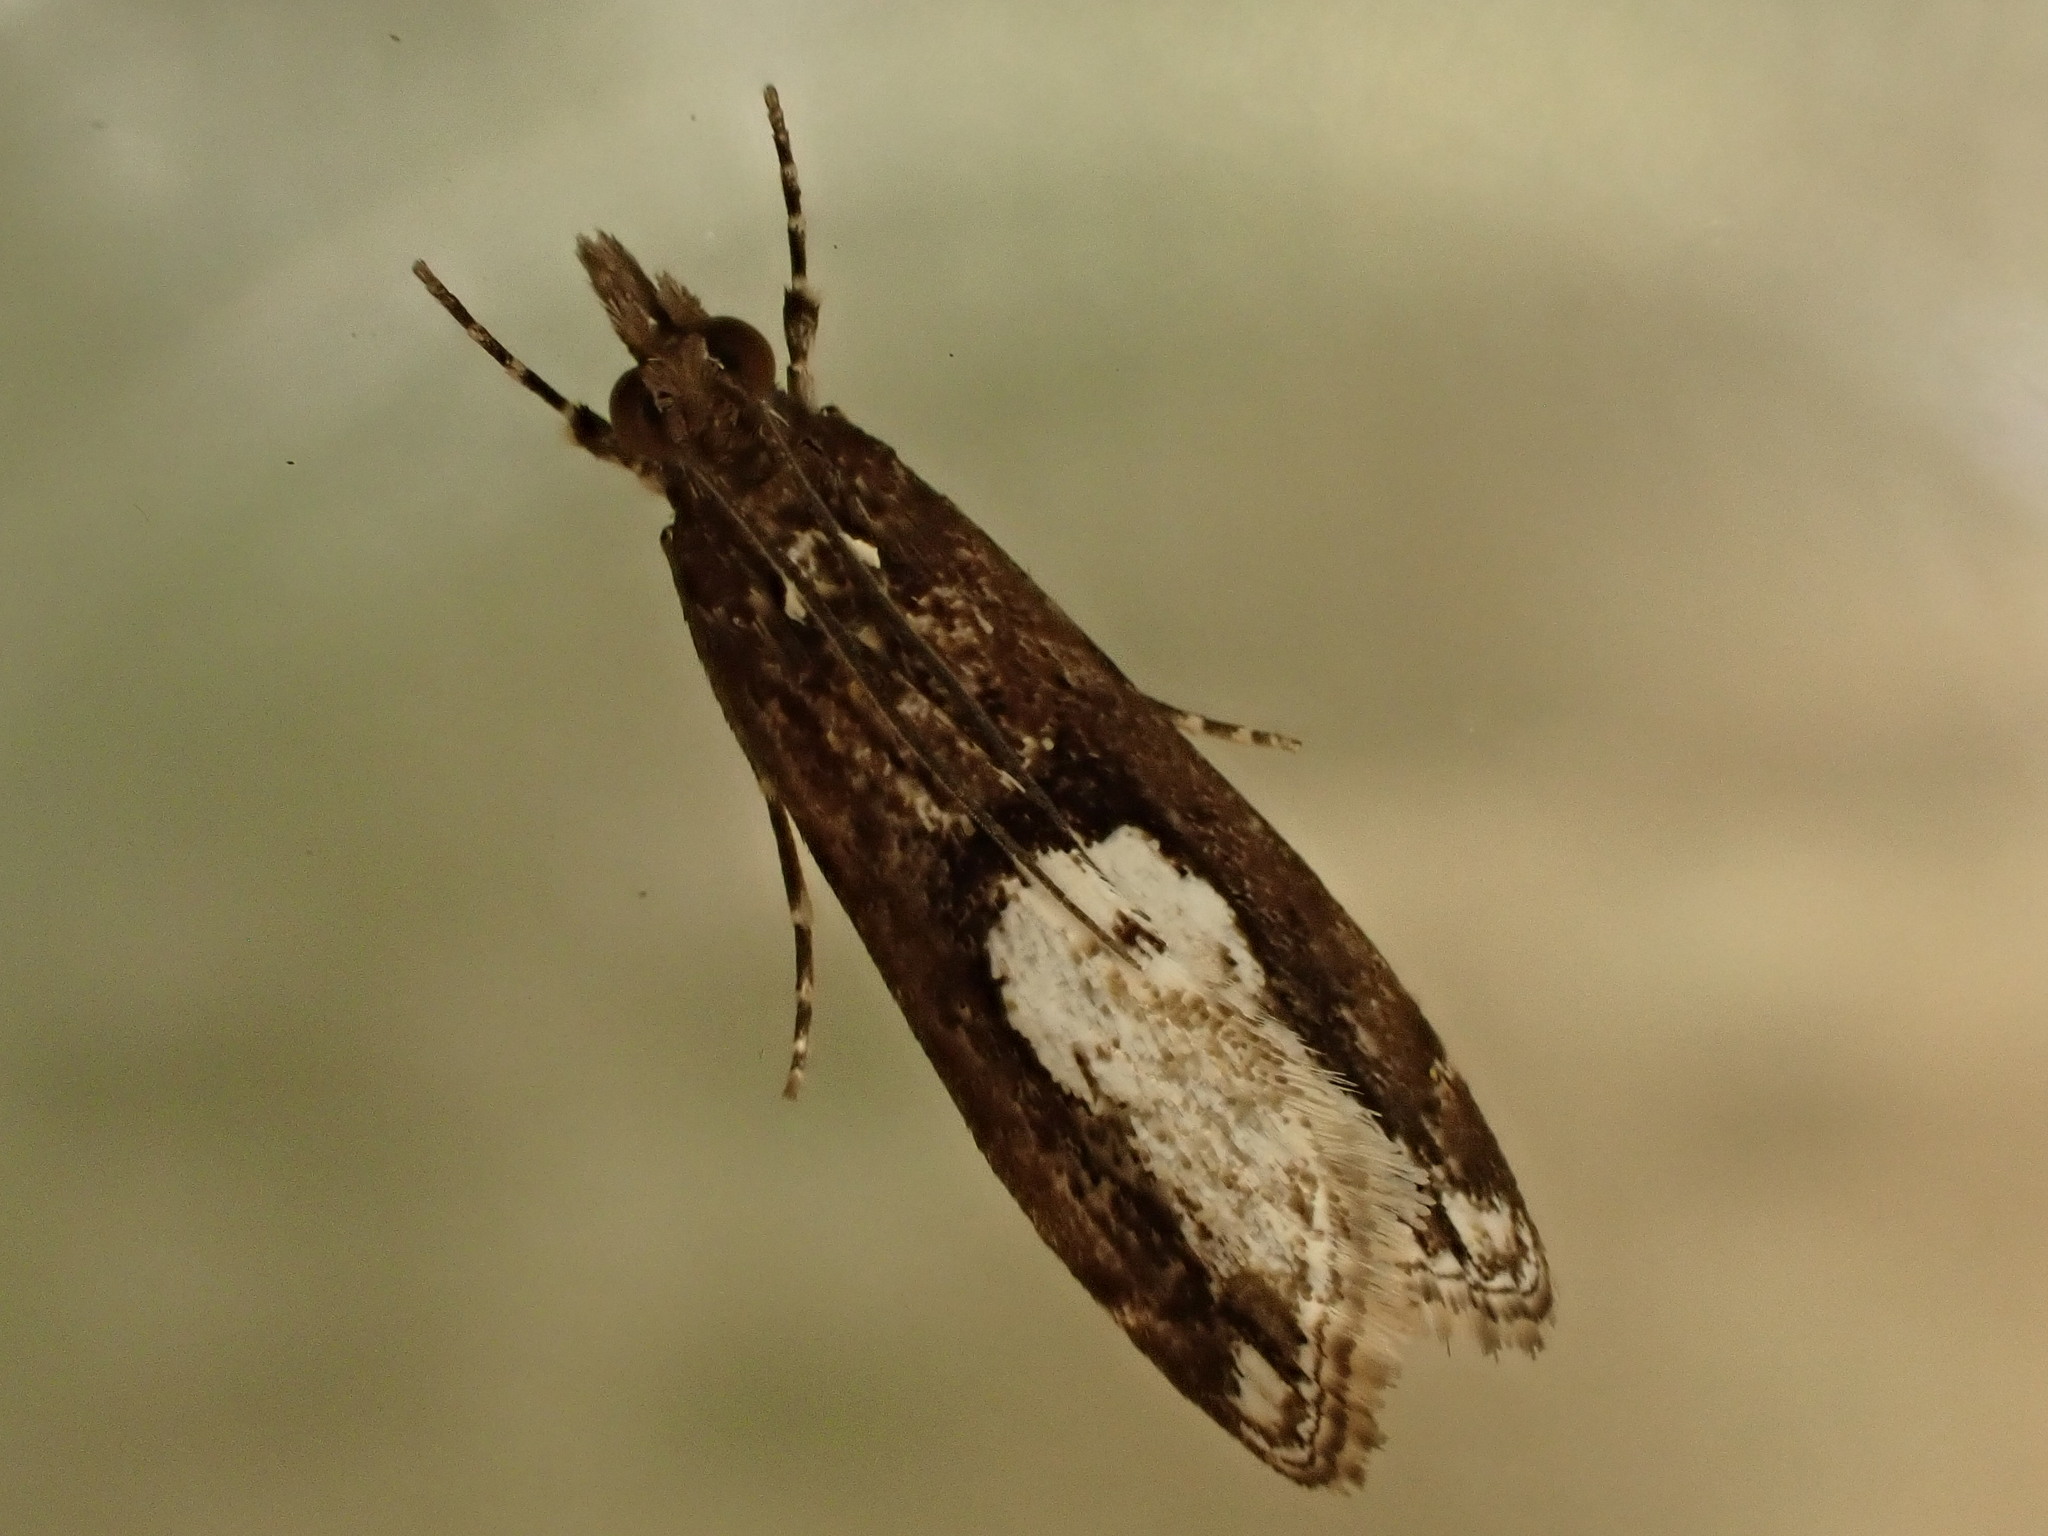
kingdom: Animalia
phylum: Arthropoda
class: Insecta
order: Lepidoptera
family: Crambidae
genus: Eudonia
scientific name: Eudonia hemiplaca
